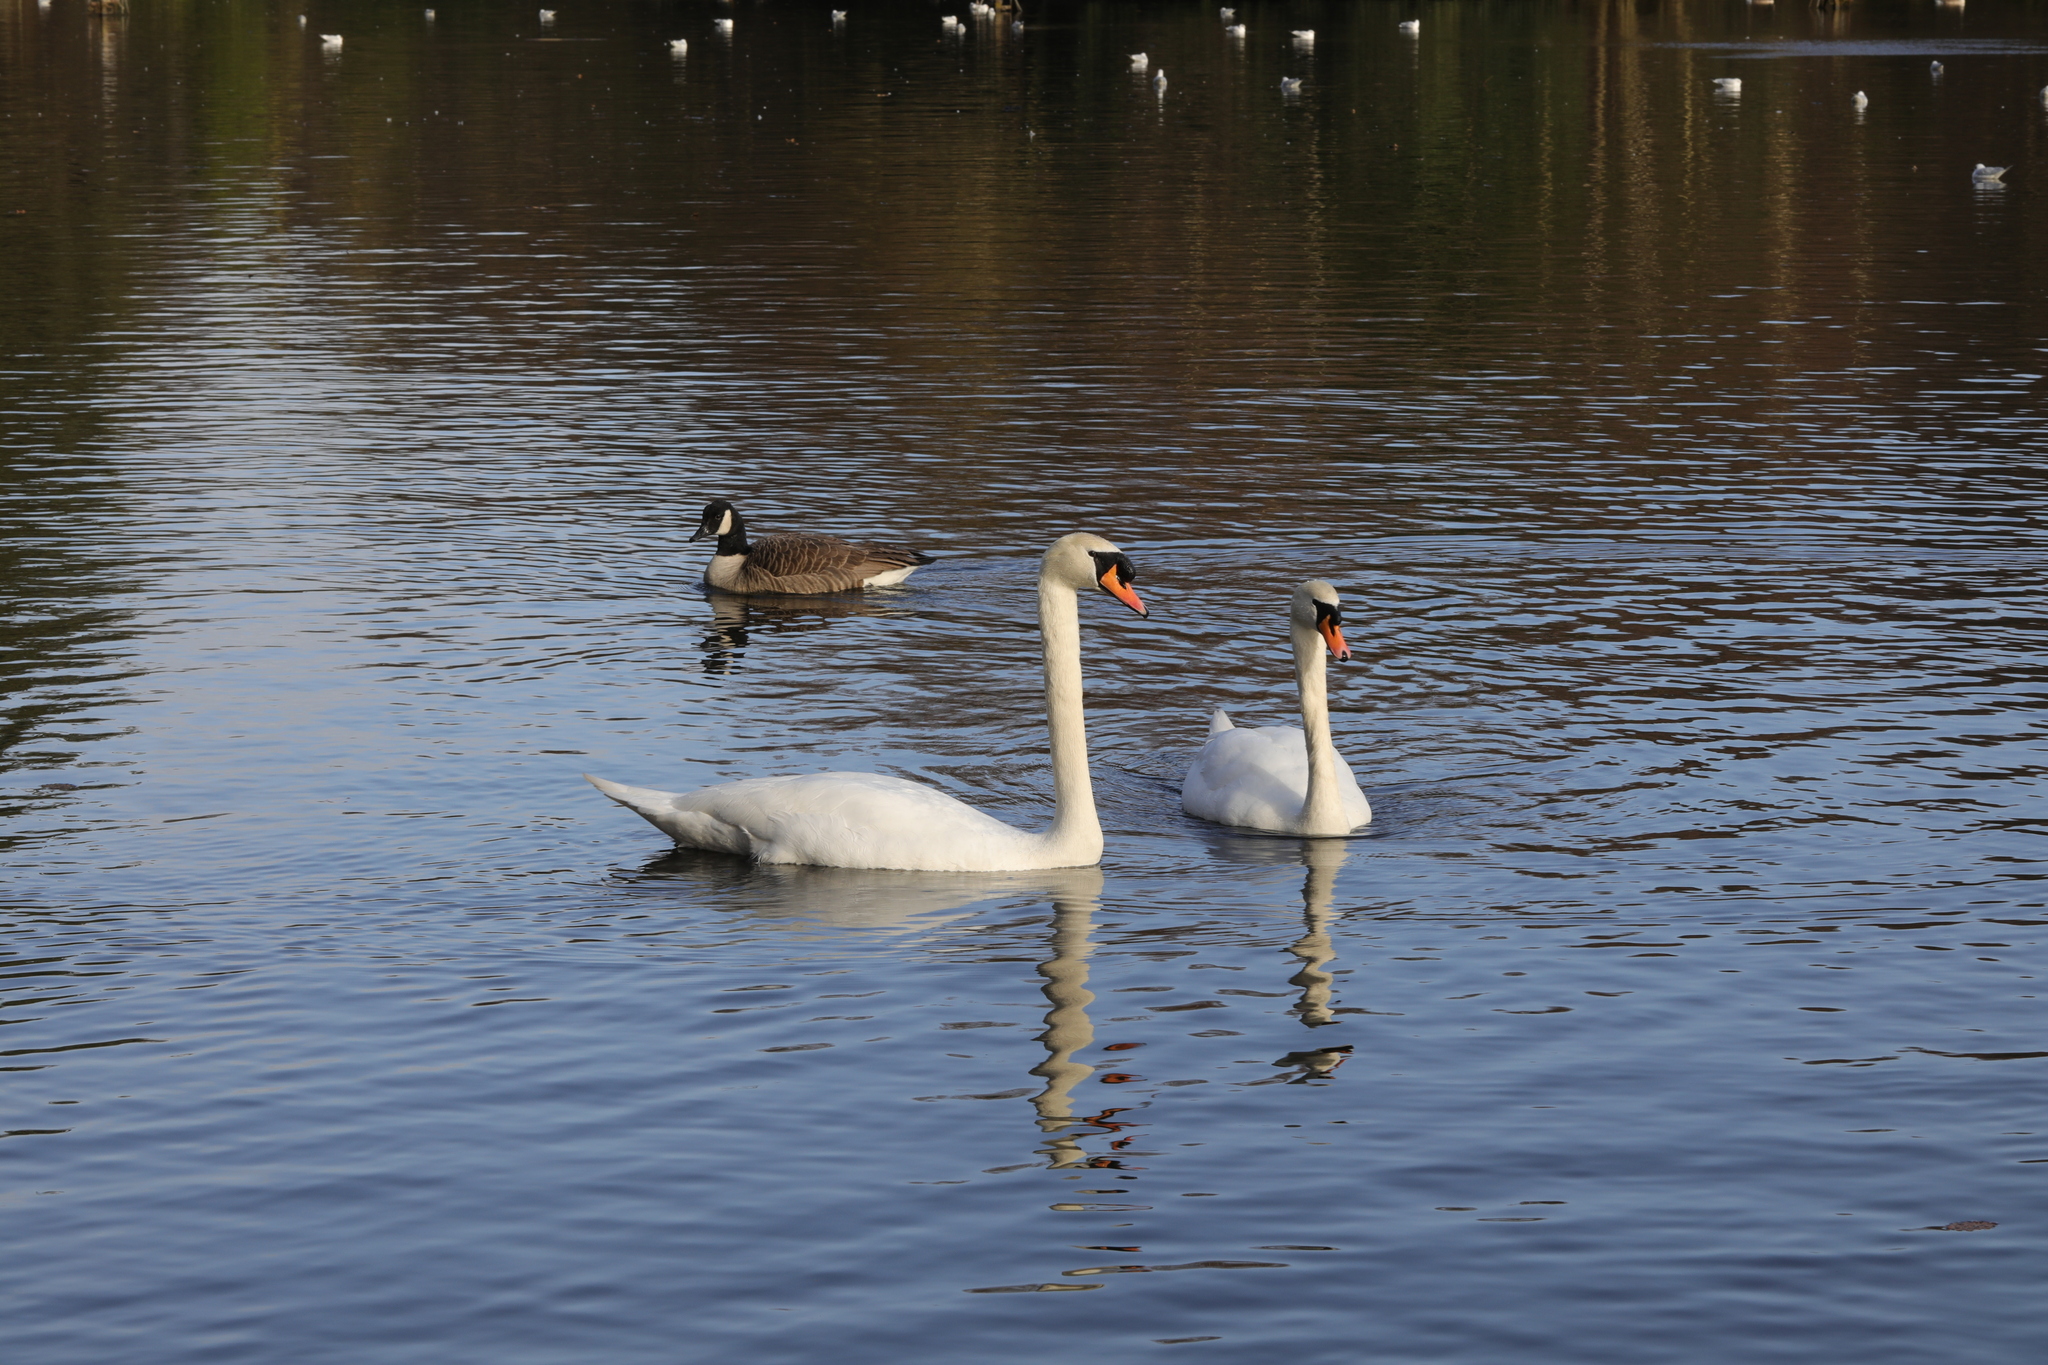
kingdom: Animalia
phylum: Chordata
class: Aves
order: Anseriformes
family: Anatidae
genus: Cygnus
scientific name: Cygnus olor
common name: Mute swan
